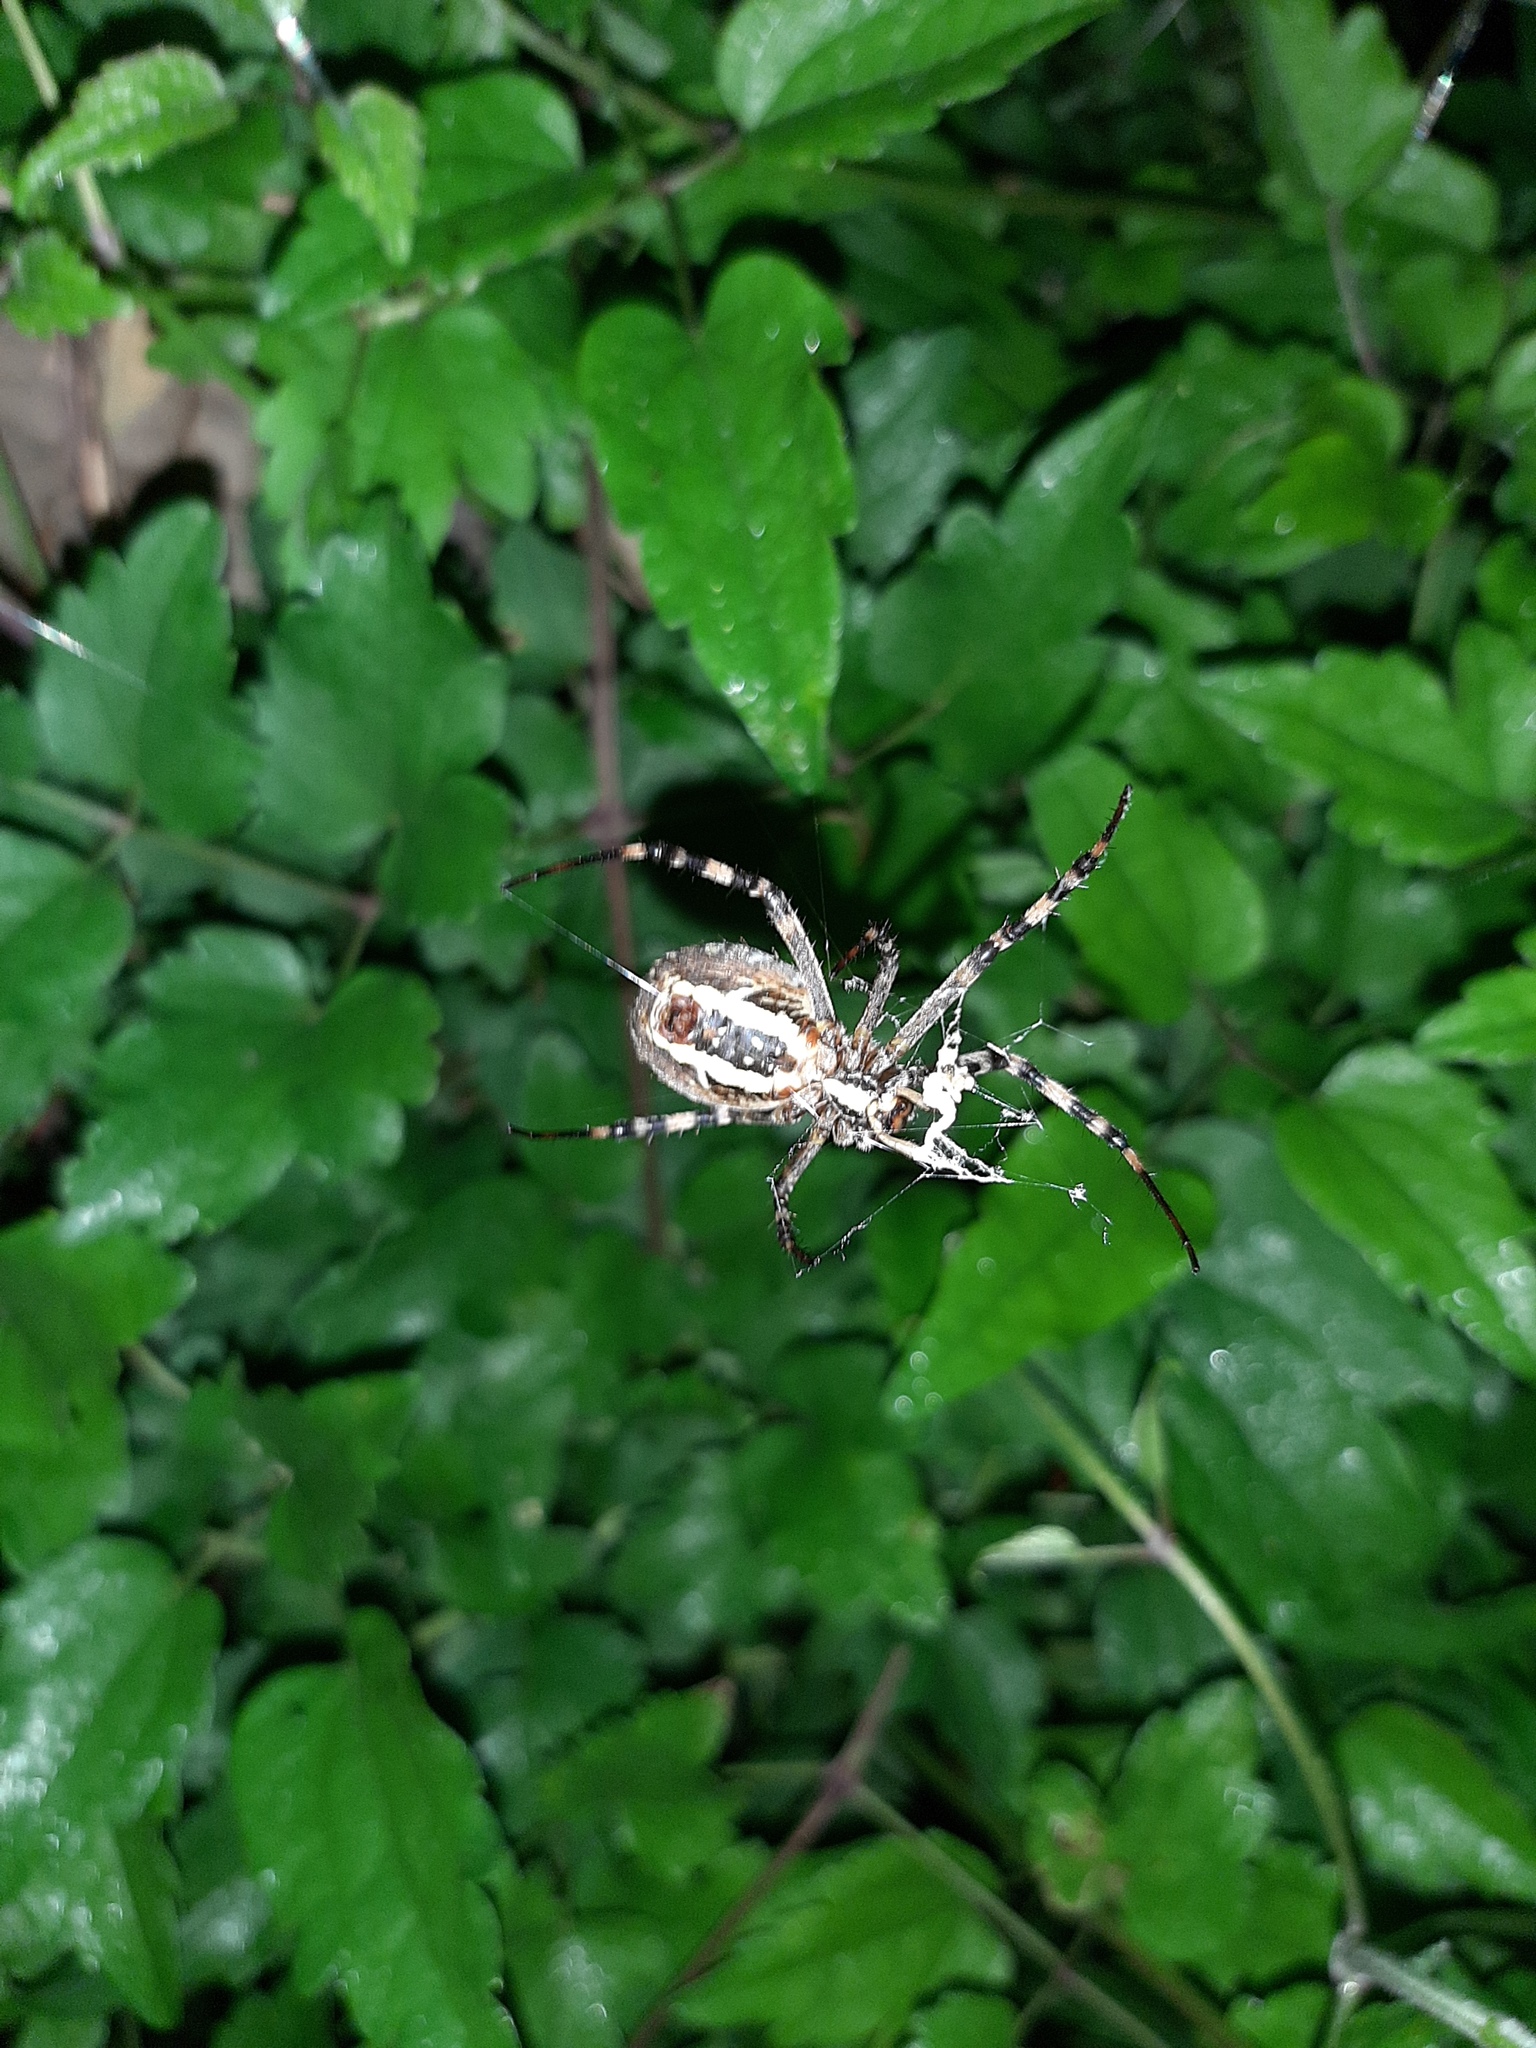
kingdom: Animalia
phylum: Arthropoda
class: Arachnida
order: Araneae
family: Araneidae
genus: Argiope
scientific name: Argiope bruennichi
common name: Wasp spider
